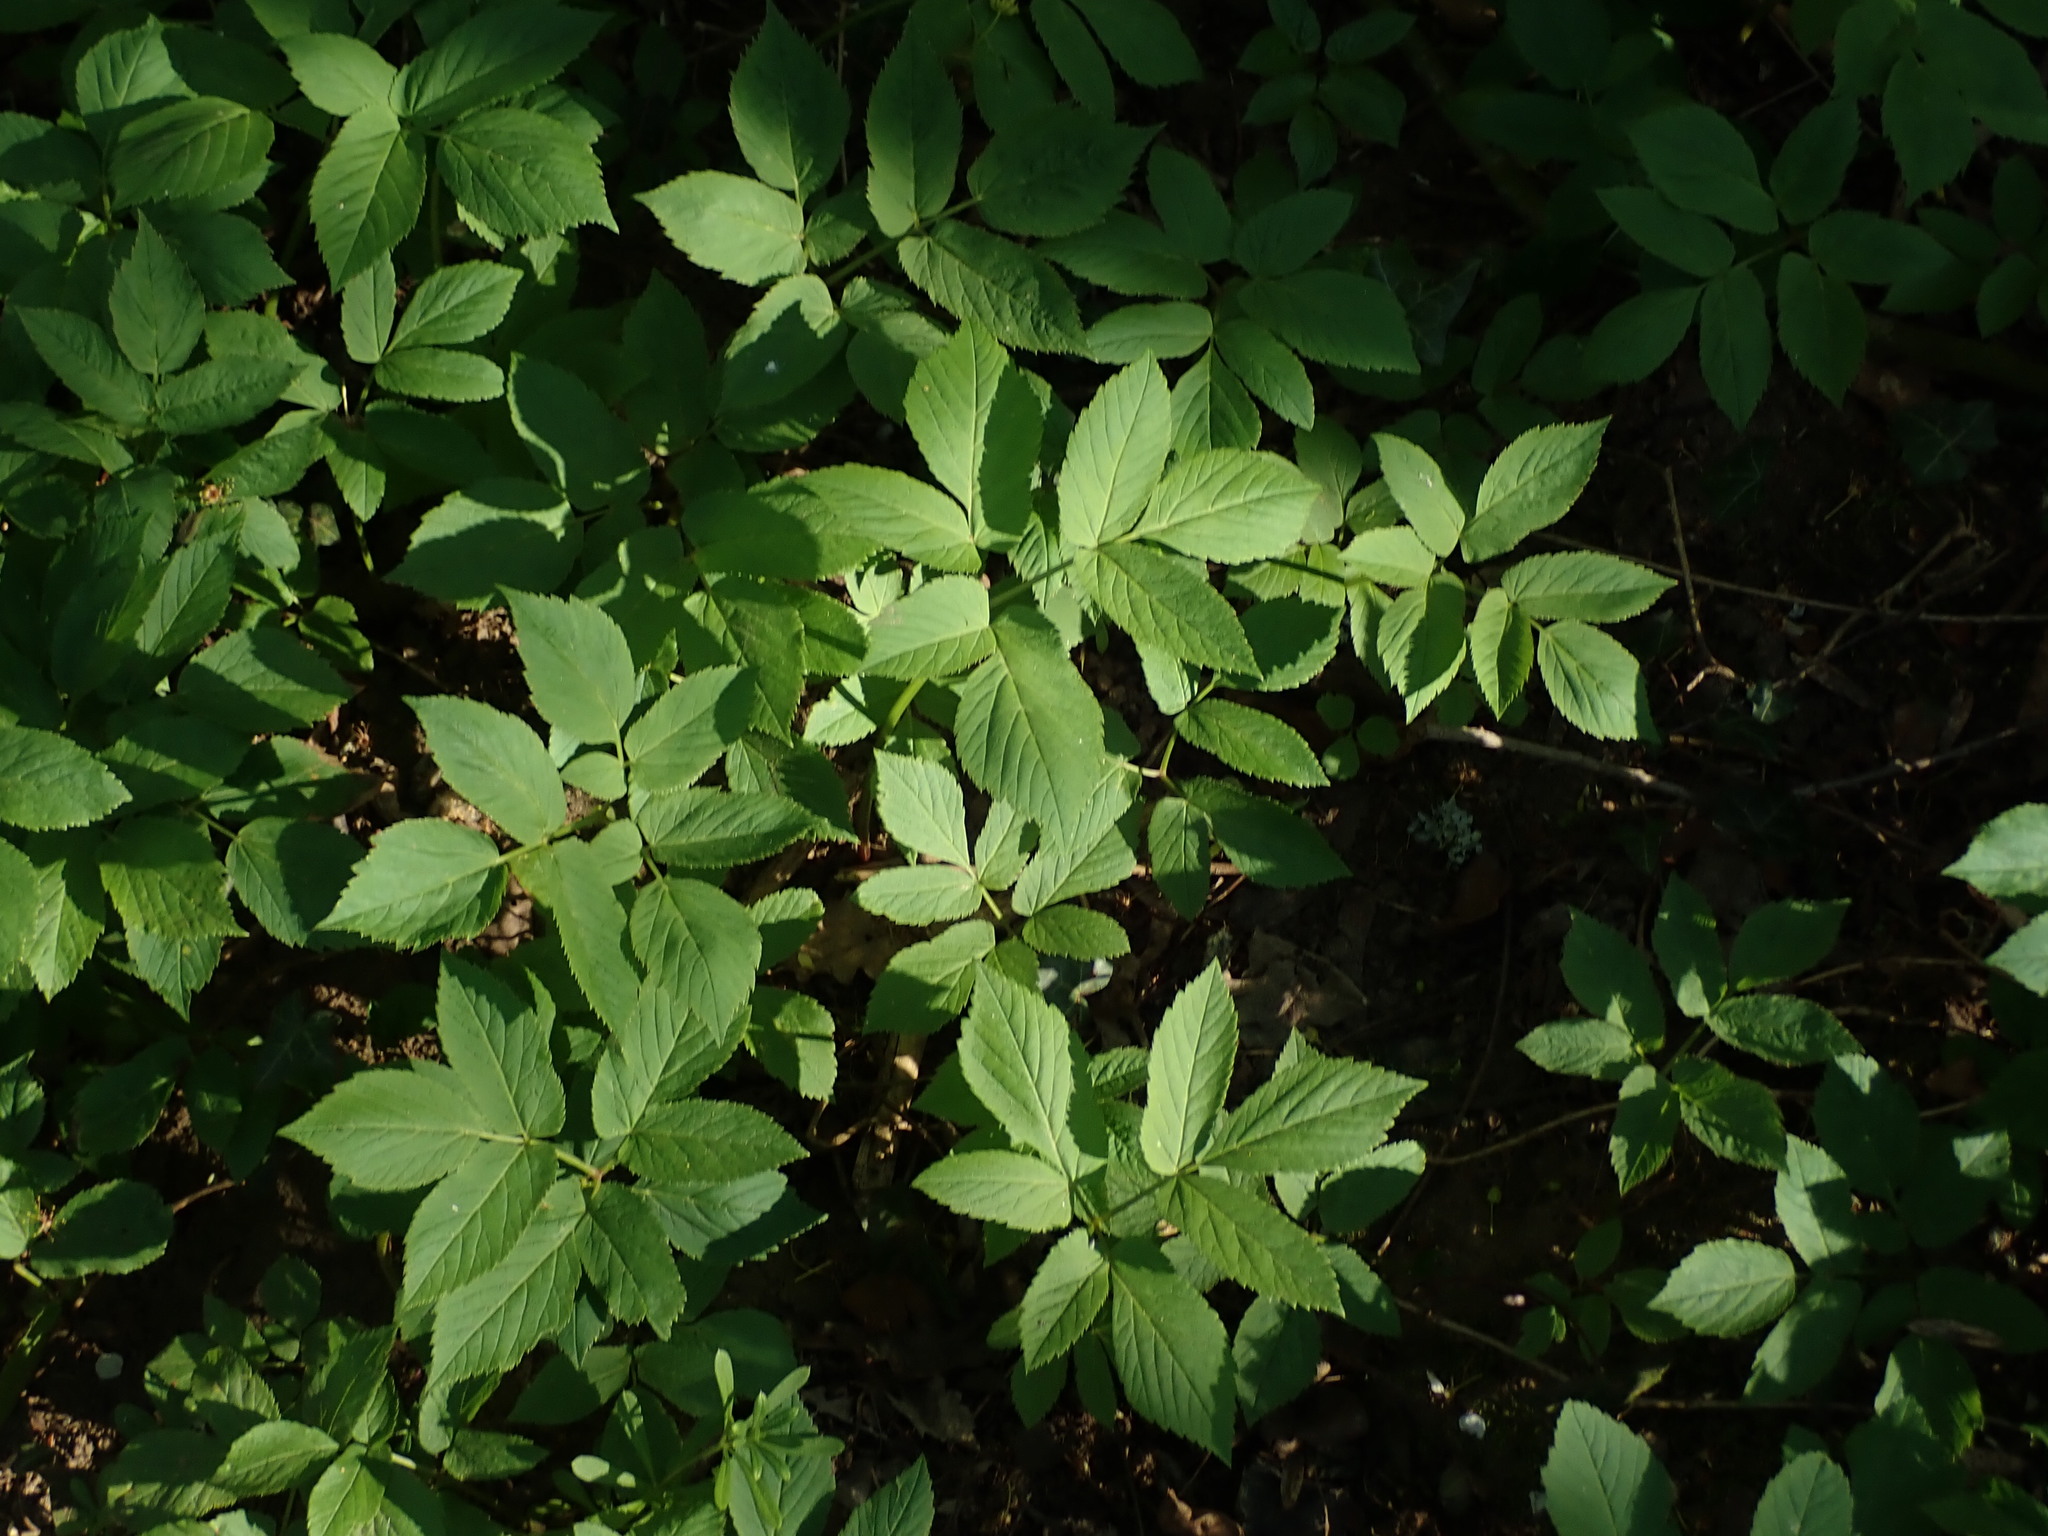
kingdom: Plantae
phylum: Tracheophyta
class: Magnoliopsida
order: Apiales
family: Apiaceae
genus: Aegopodium
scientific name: Aegopodium podagraria
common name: Ground-elder
